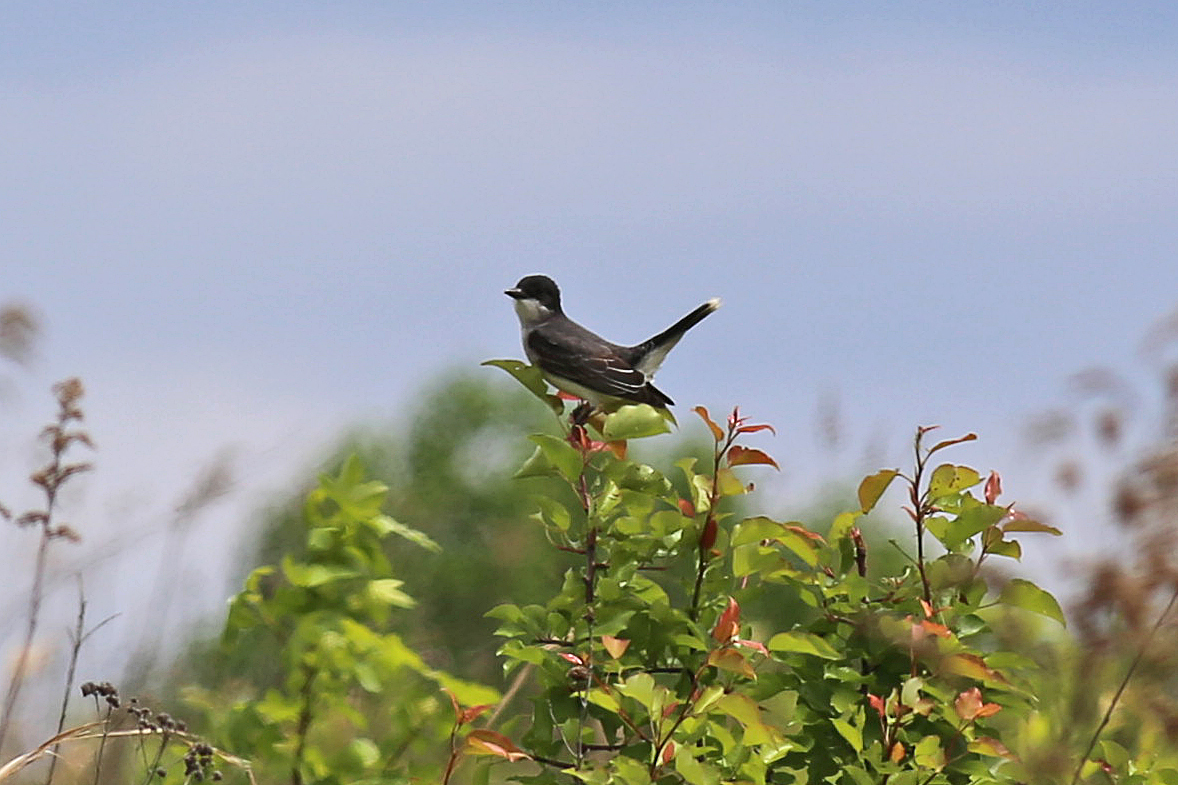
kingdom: Animalia
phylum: Chordata
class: Aves
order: Passeriformes
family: Tyrannidae
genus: Tyrannus
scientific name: Tyrannus tyrannus
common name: Eastern kingbird
